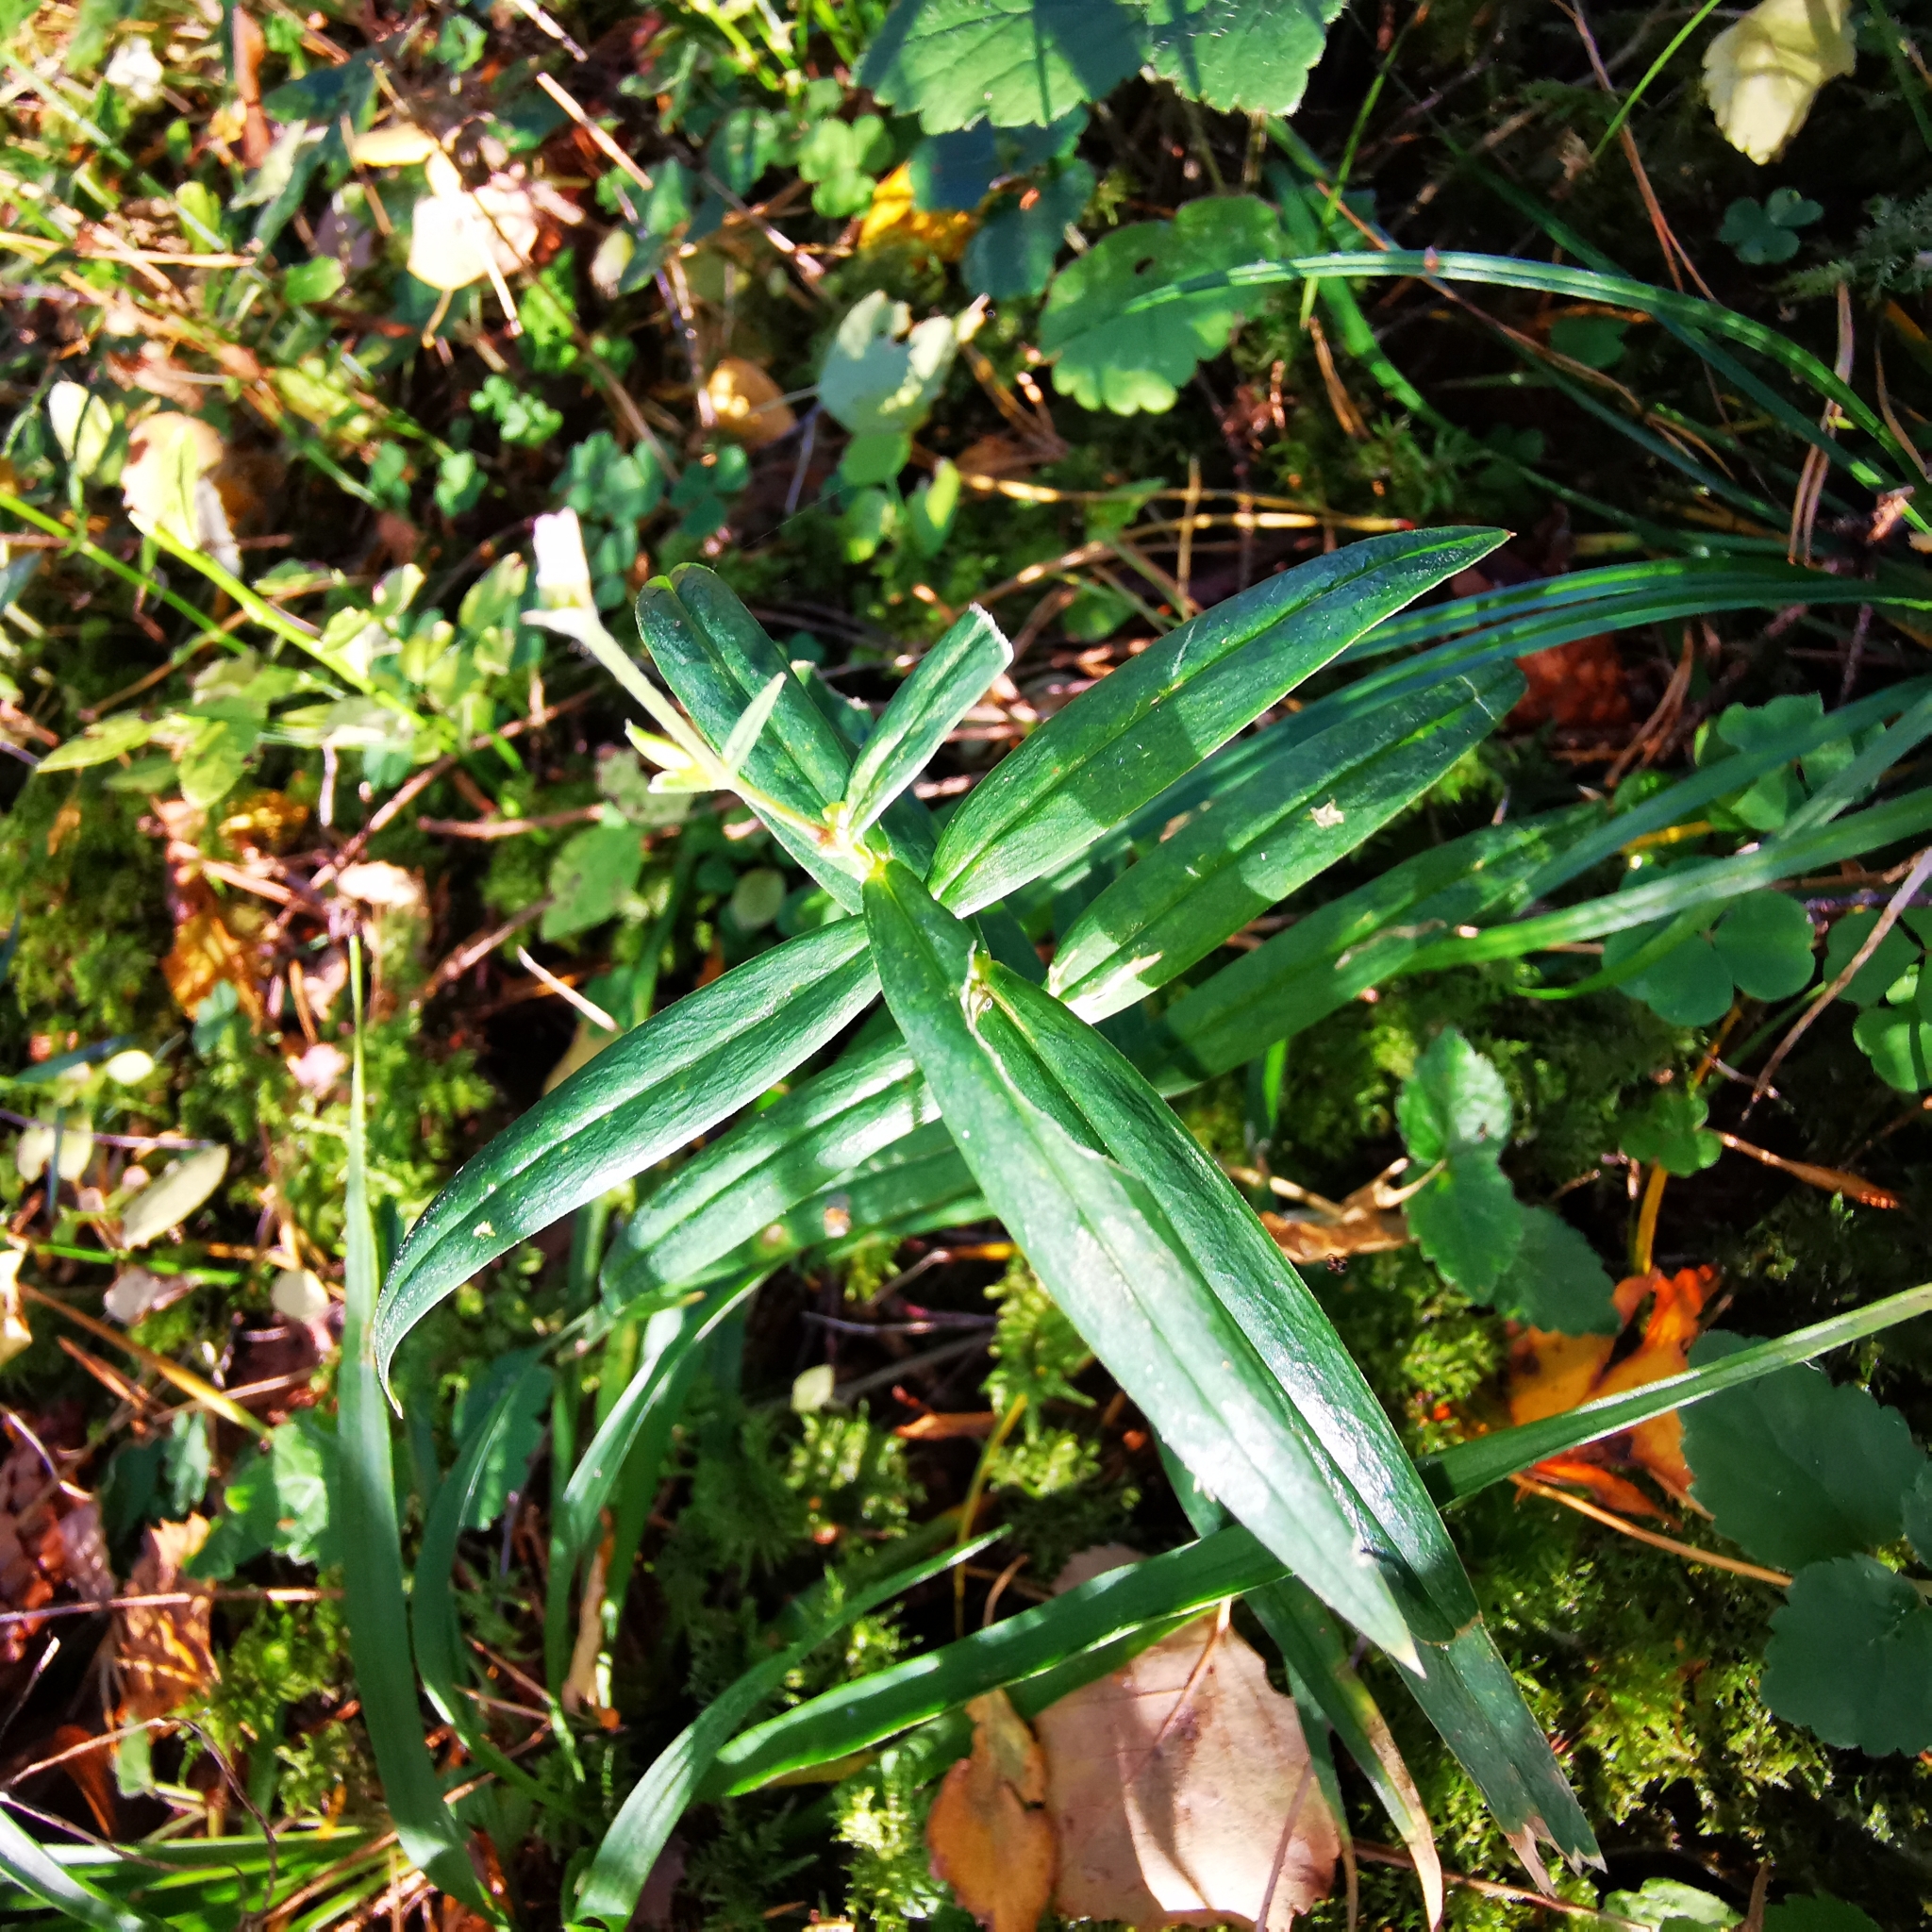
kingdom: Plantae
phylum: Tracheophyta
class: Magnoliopsida
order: Caryophyllales
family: Caryophyllaceae
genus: Rabelera
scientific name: Rabelera holostea
